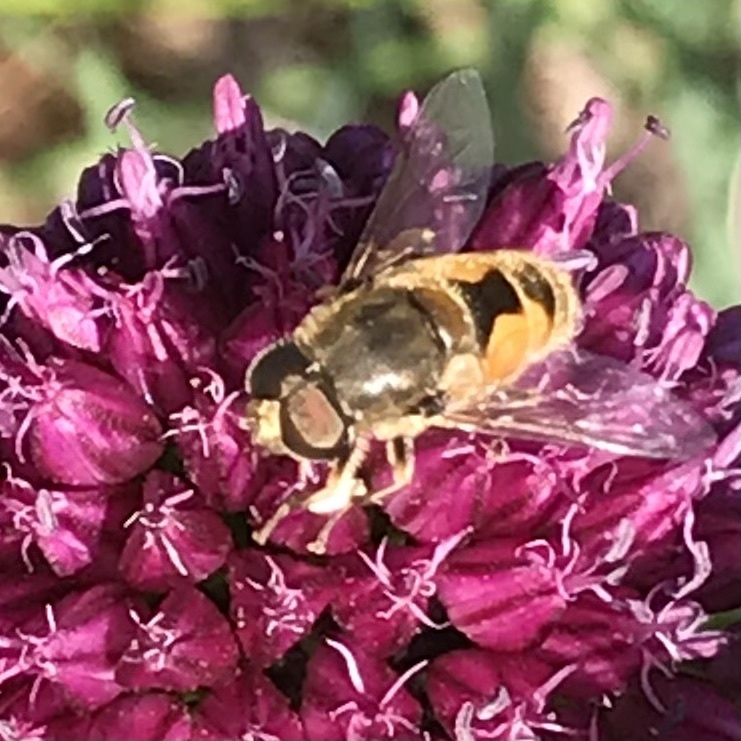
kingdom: Animalia
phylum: Arthropoda
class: Insecta
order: Diptera
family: Syrphidae
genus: Eristalis
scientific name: Eristalis arbustorum
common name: Hover fly
